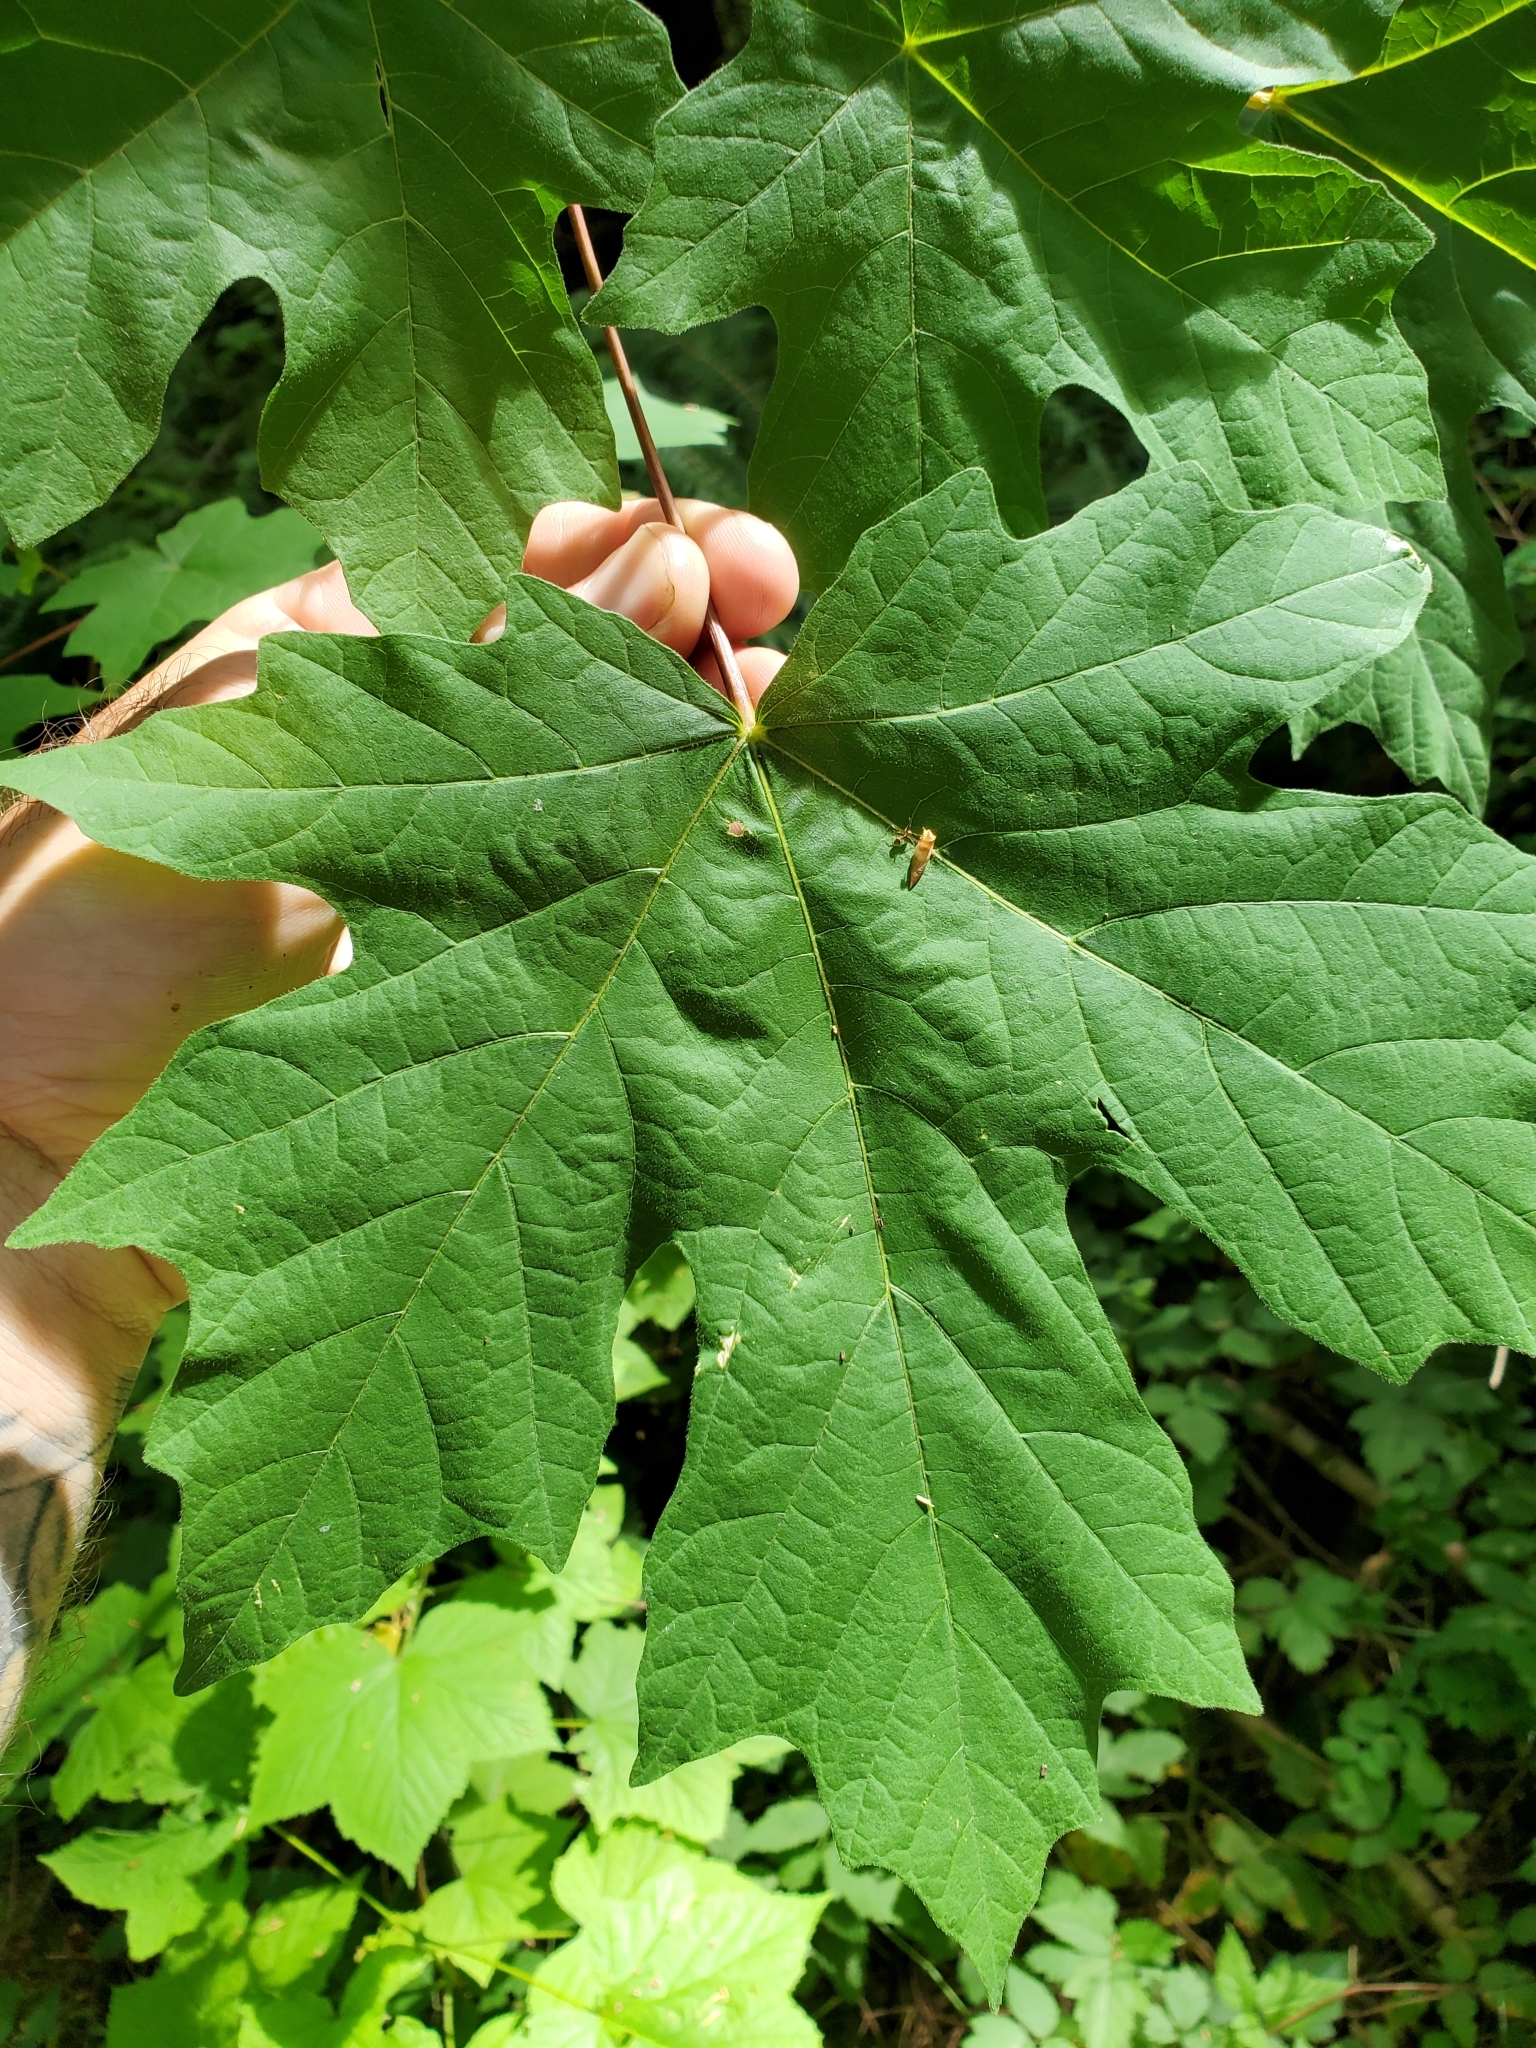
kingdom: Plantae
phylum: Tracheophyta
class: Magnoliopsida
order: Sapindales
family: Sapindaceae
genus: Acer
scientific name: Acer macrophyllum
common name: Oregon maple
